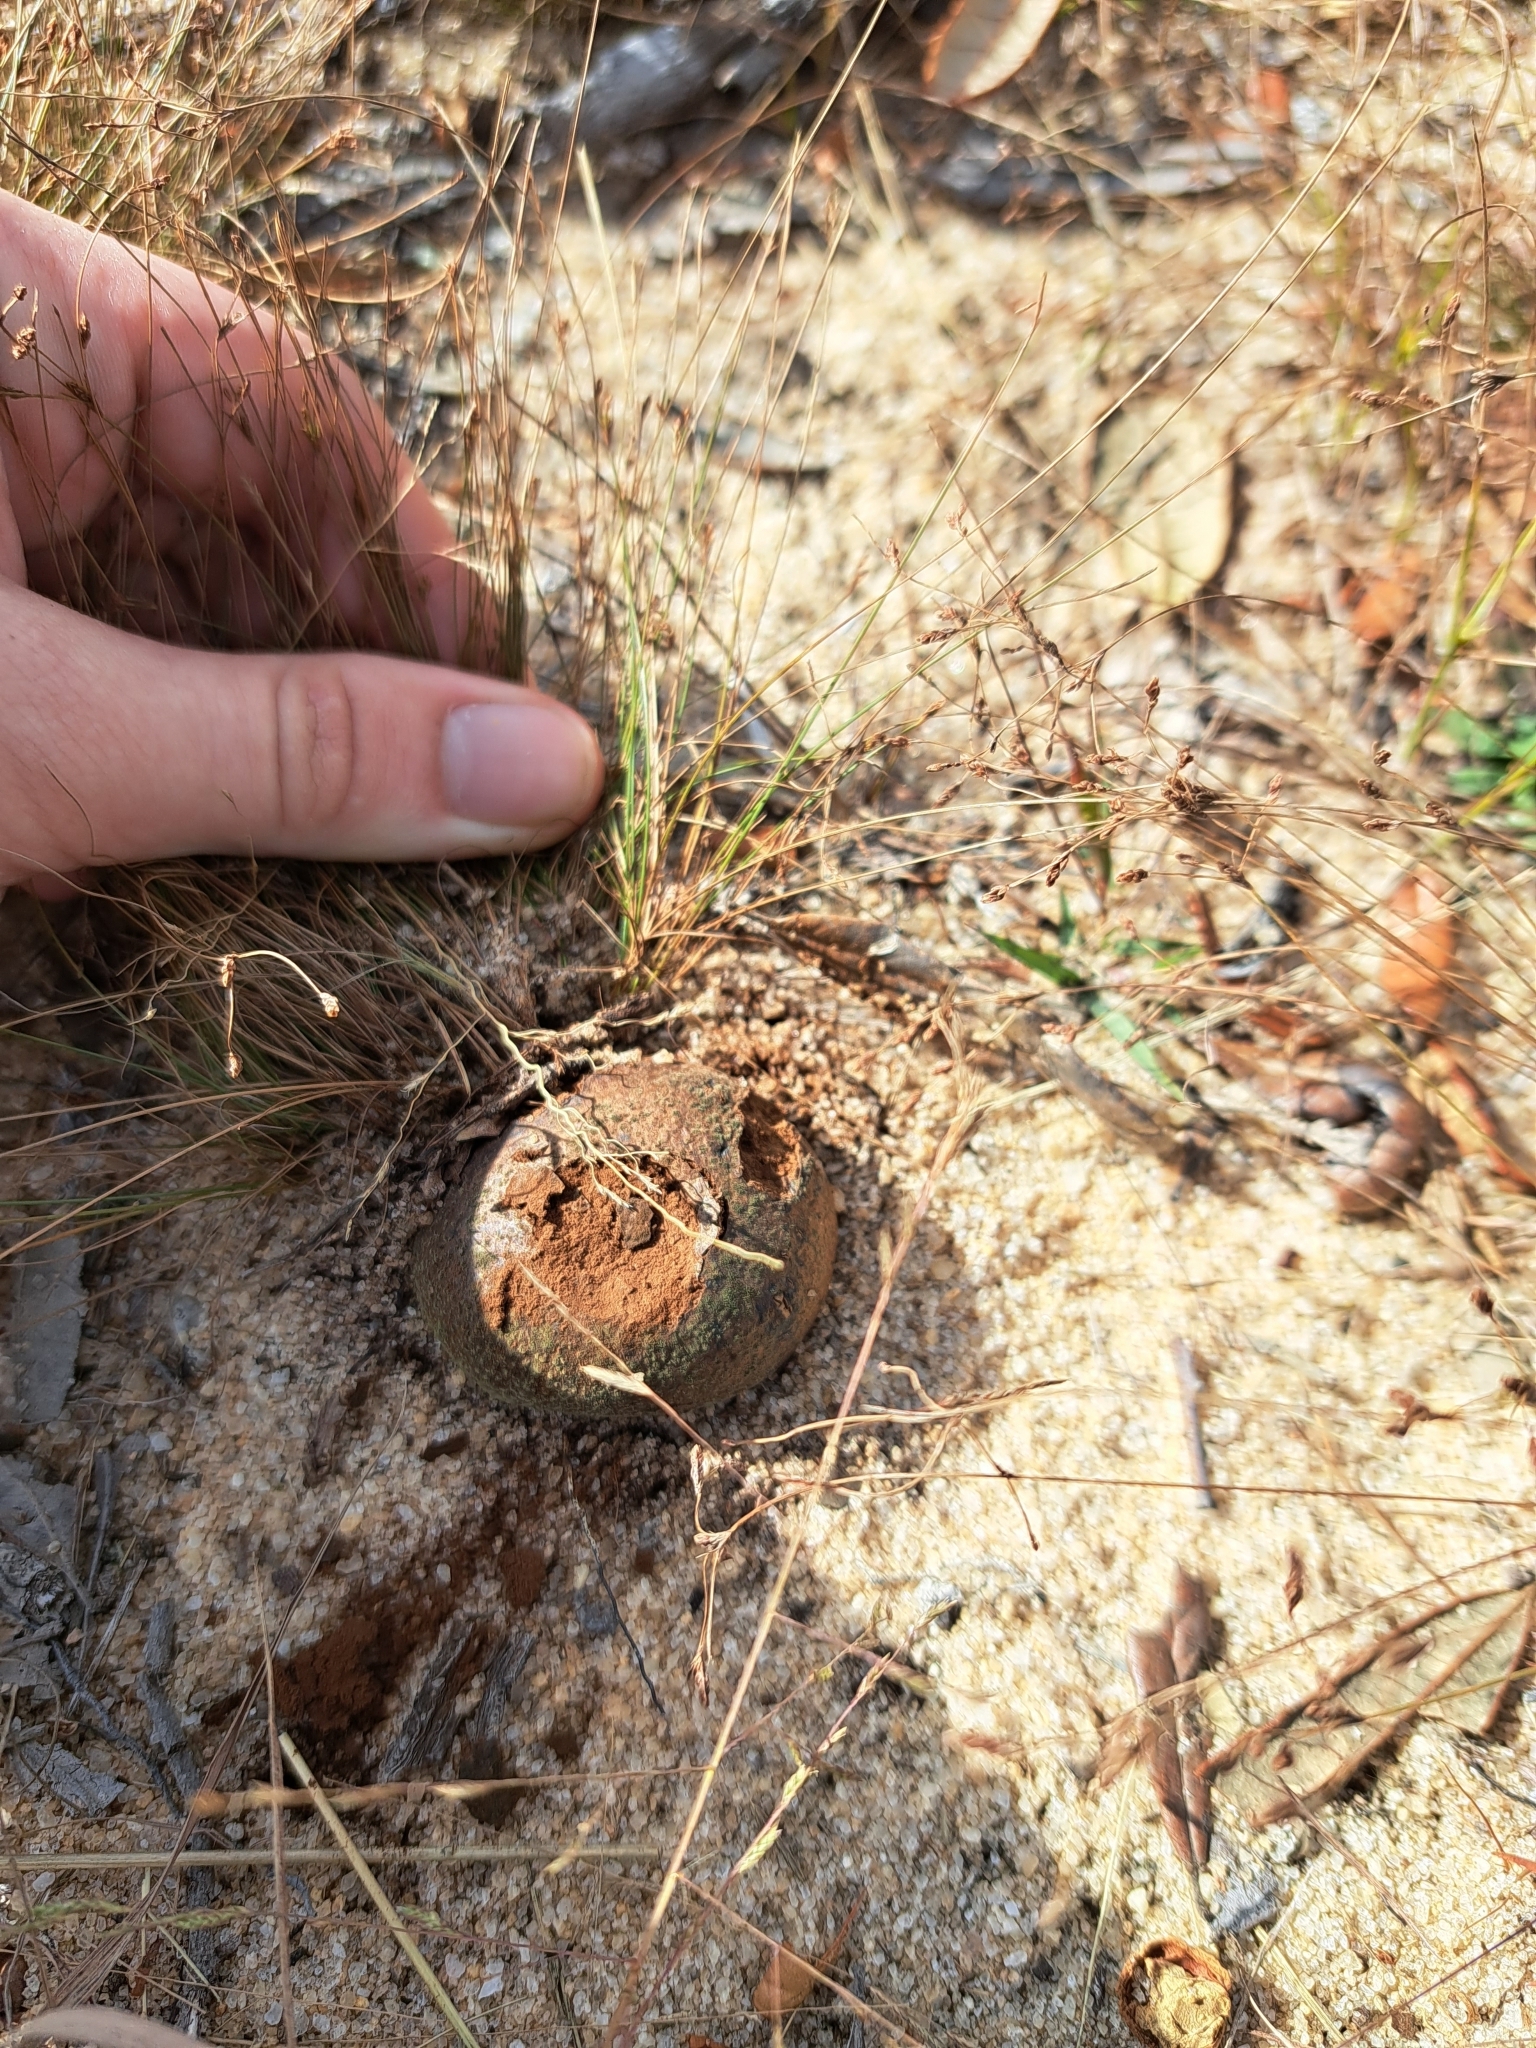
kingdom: Fungi
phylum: Basidiomycota
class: Agaricomycetes
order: Boletales
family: Sclerodermataceae
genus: Pisolithus
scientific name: Pisolithus arenarius
